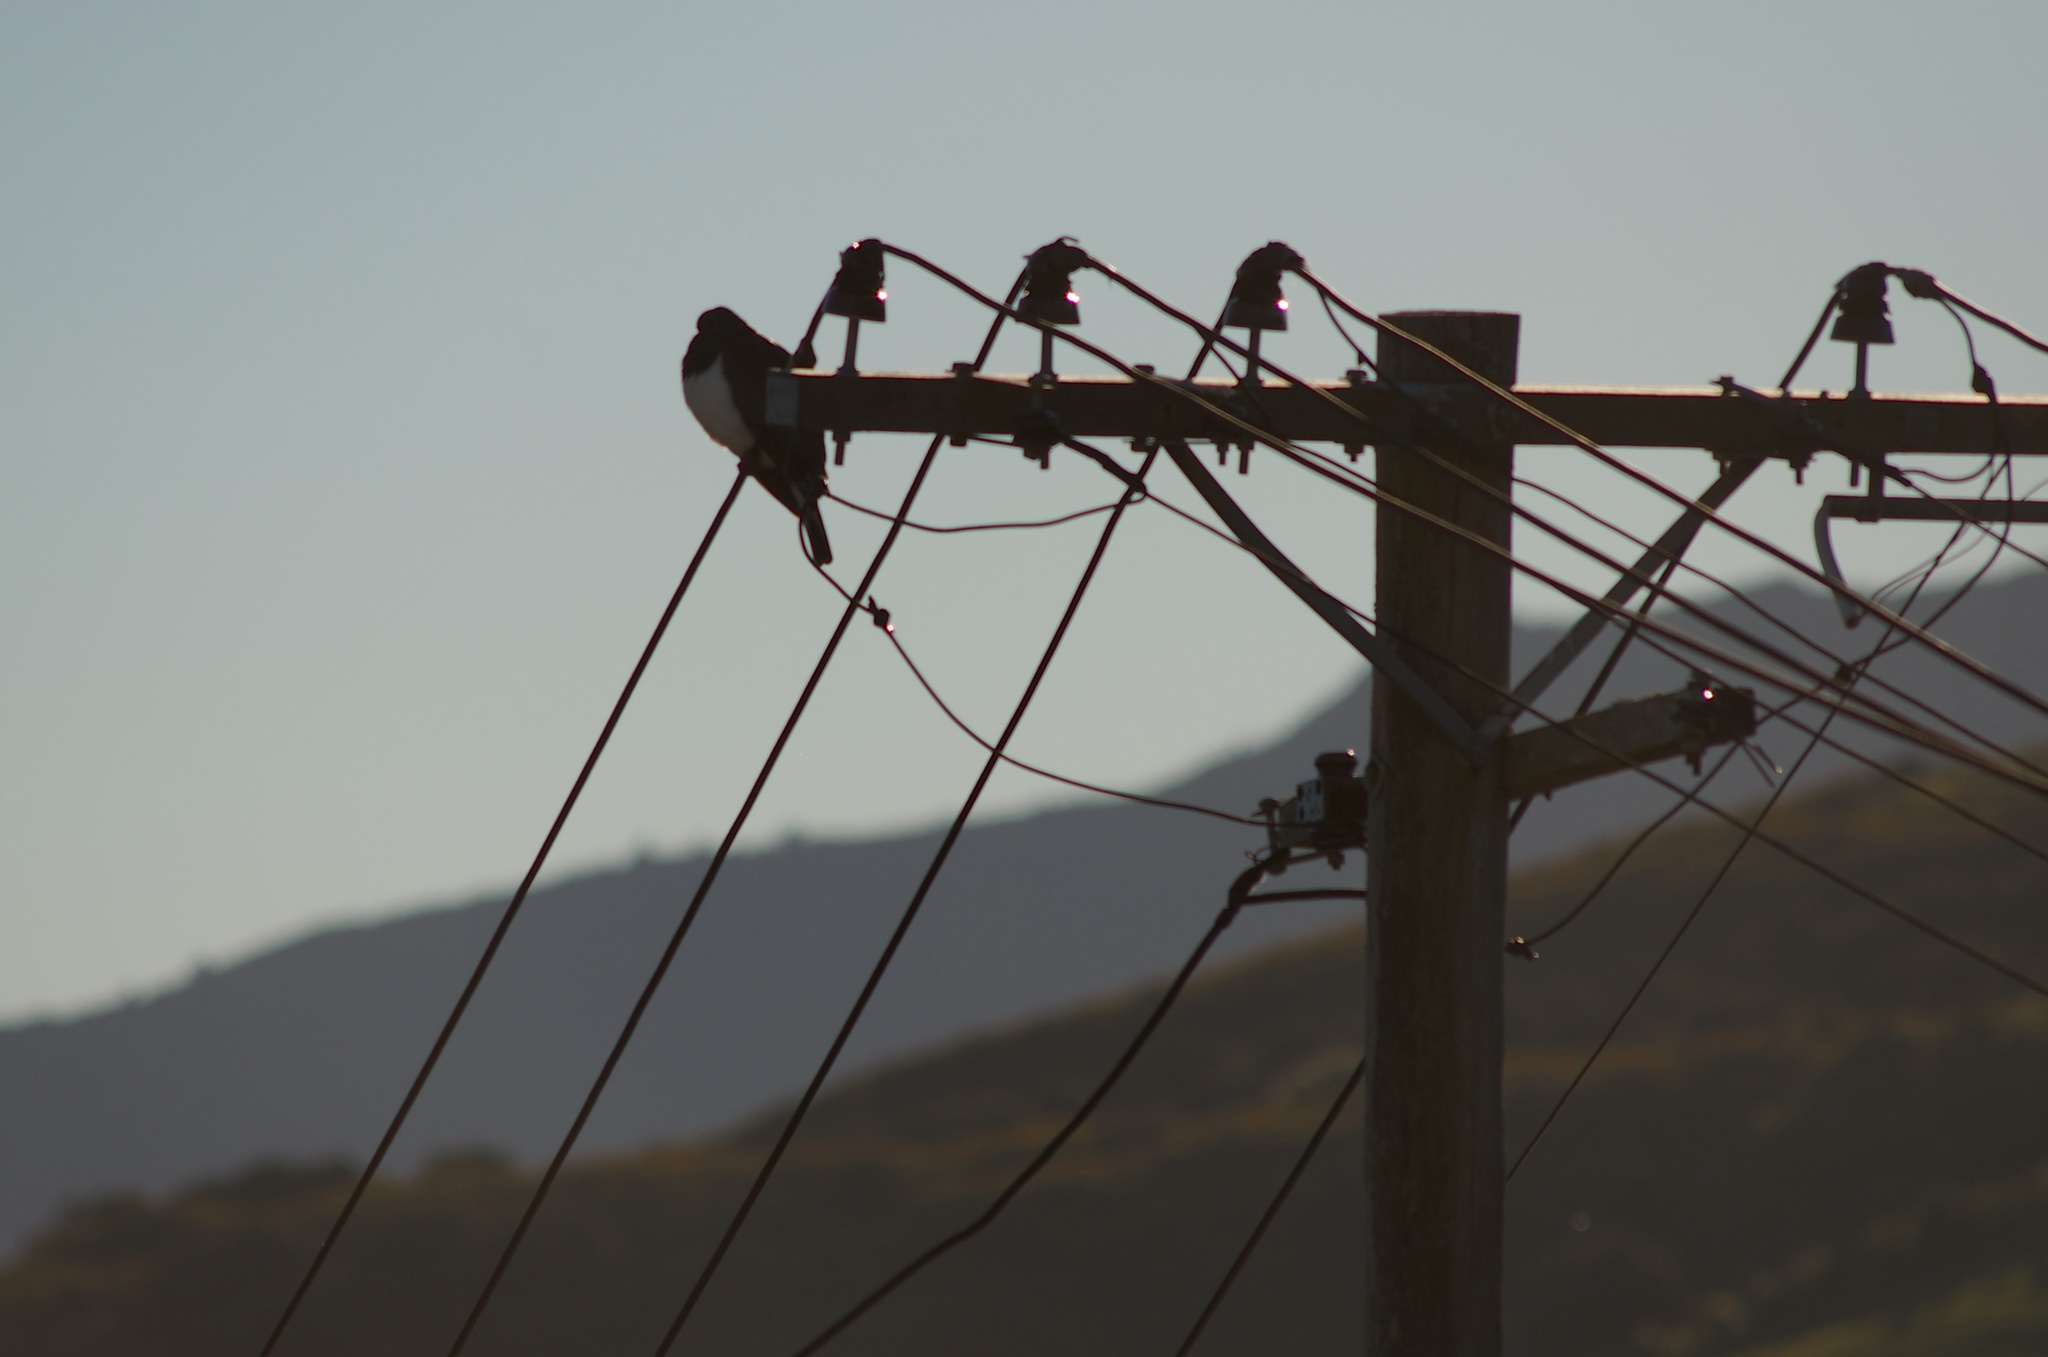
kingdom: Animalia
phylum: Chordata
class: Aves
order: Columbiformes
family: Columbidae
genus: Hemiphaga
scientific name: Hemiphaga novaeseelandiae
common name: New zealand pigeon
